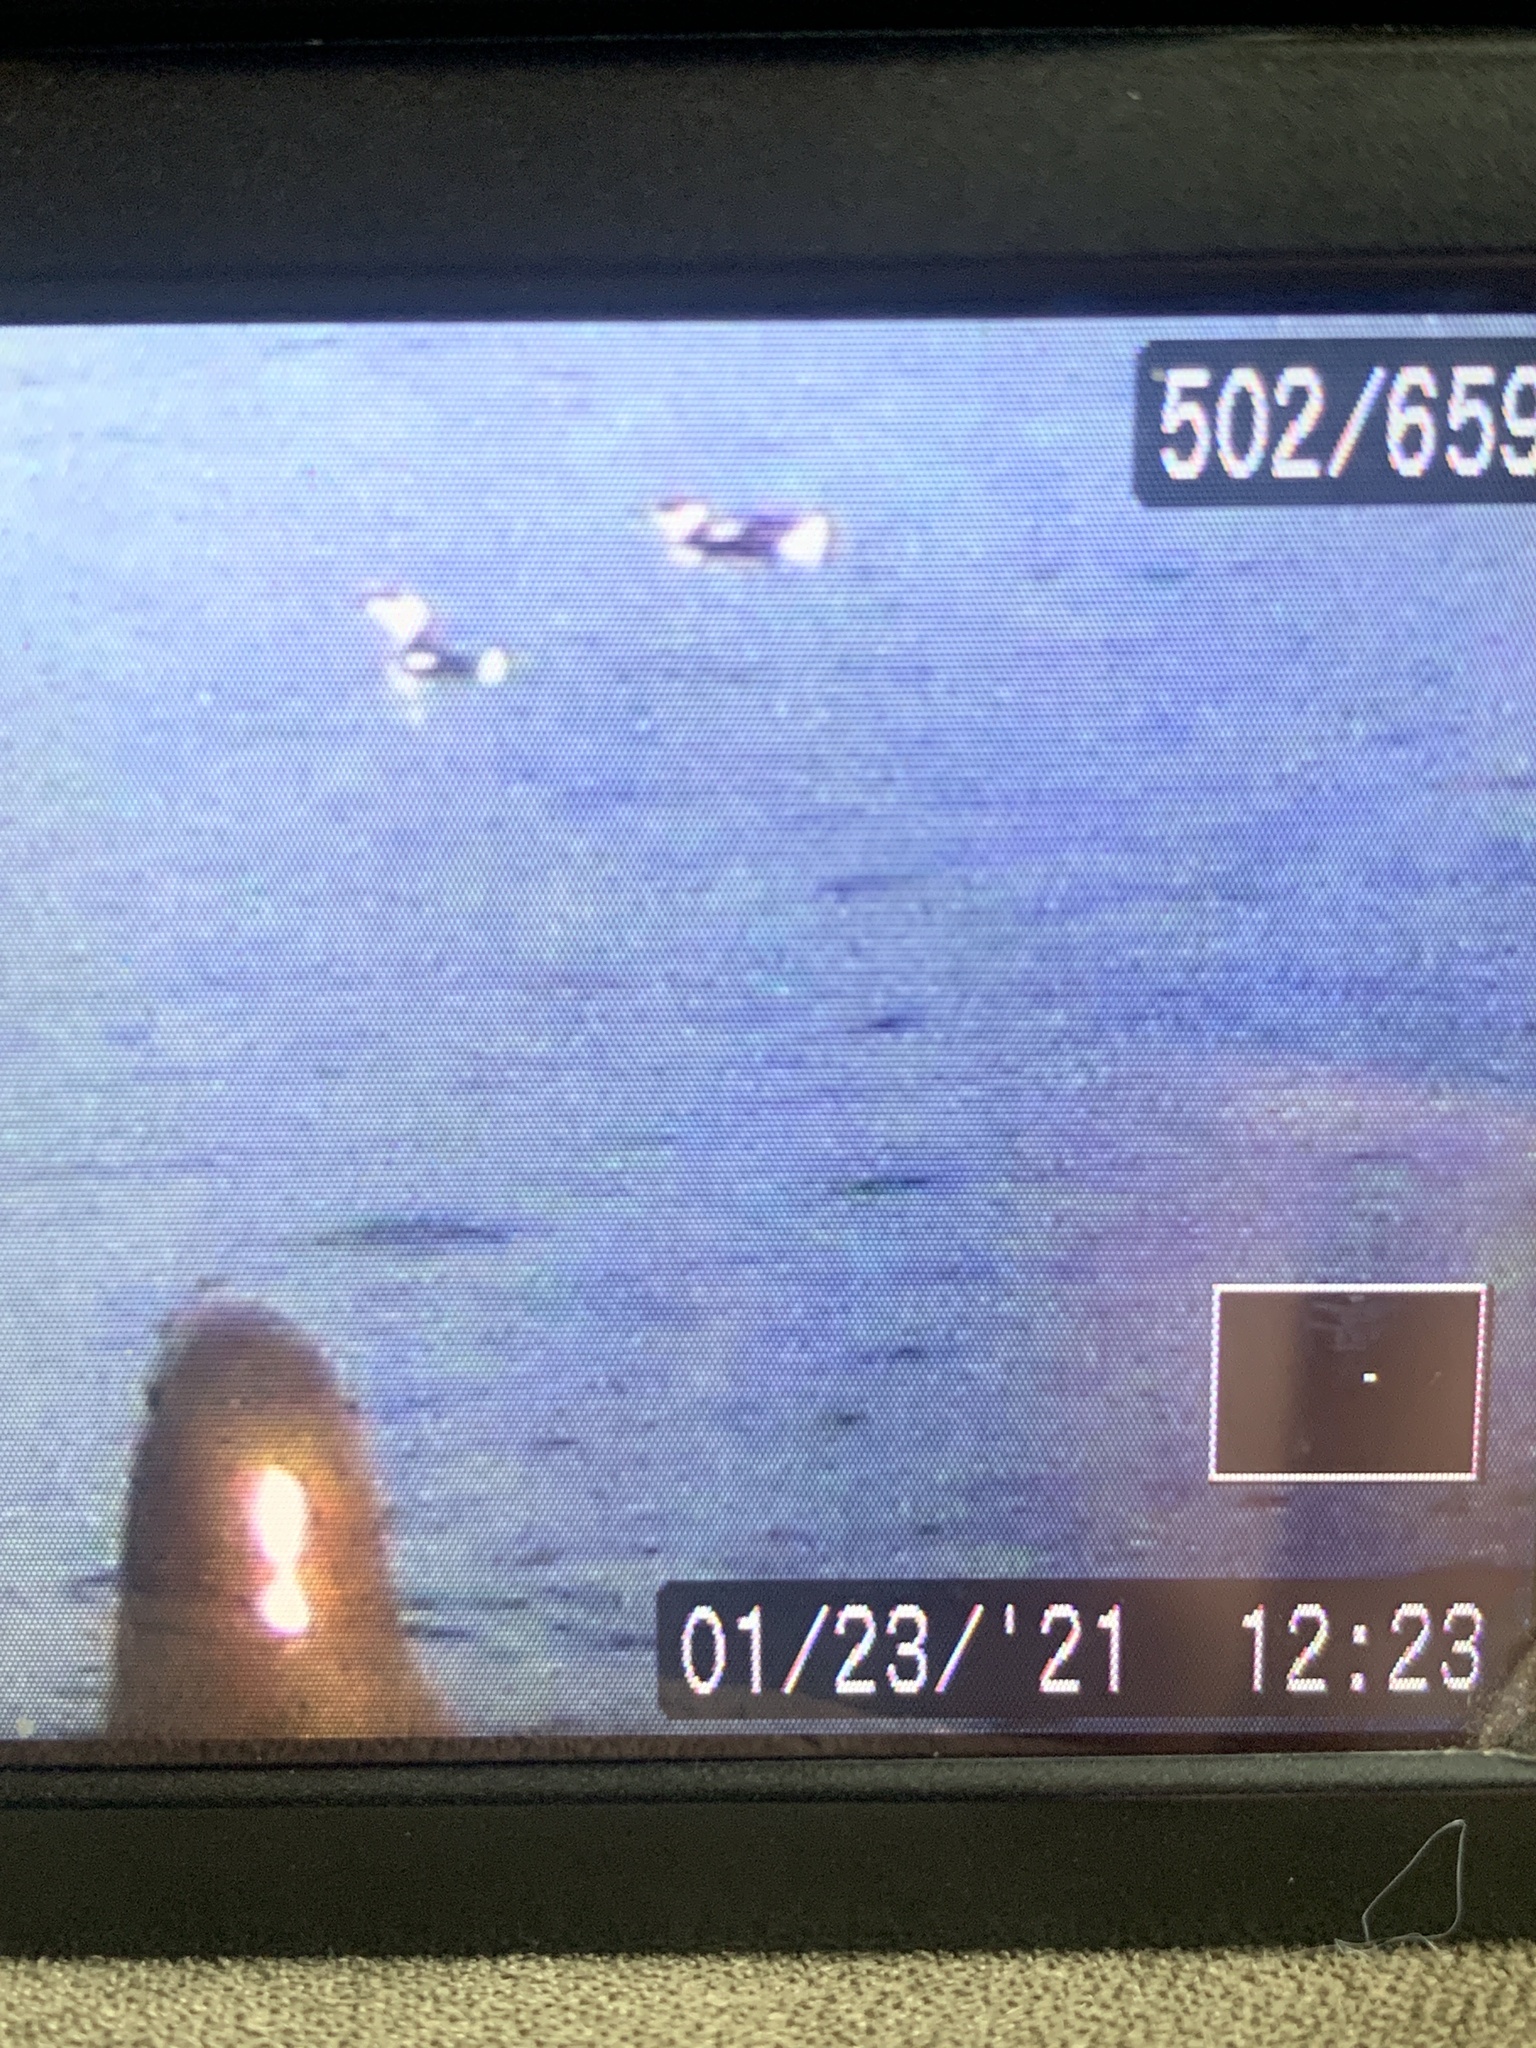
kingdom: Animalia
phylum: Chordata
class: Aves
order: Charadriiformes
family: Alcidae
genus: Brachyramphus
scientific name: Brachyramphus marmoratus
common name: Marbled murrelet
